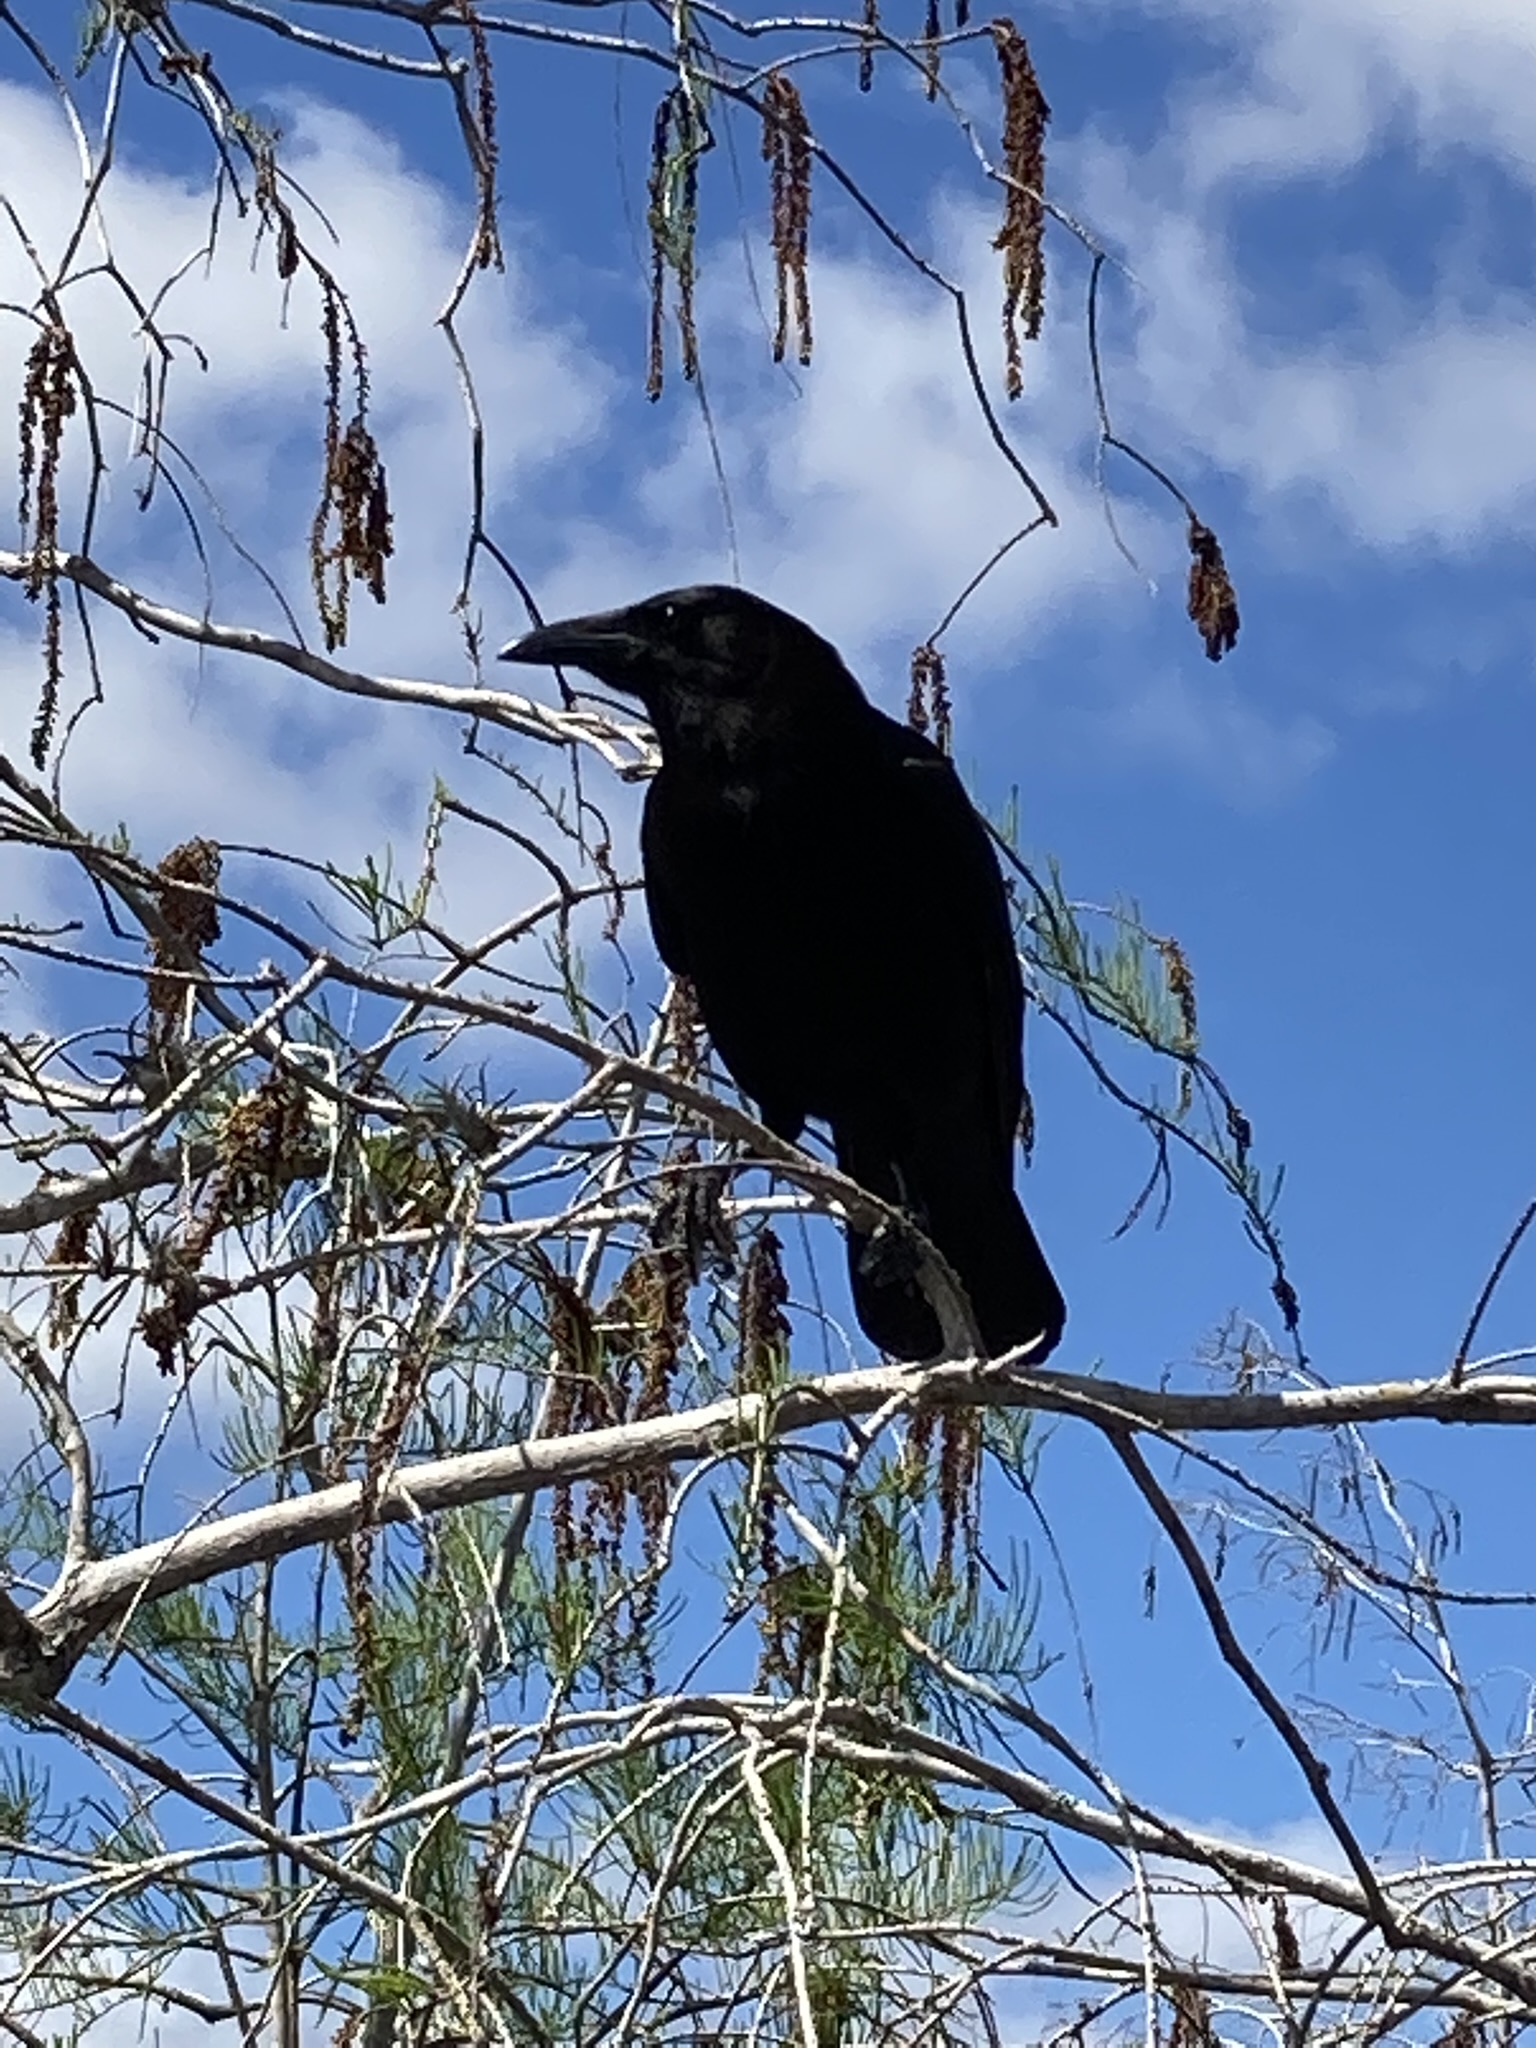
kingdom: Animalia
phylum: Chordata
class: Aves
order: Passeriformes
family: Corvidae
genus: Corvus
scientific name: Corvus brachyrhynchos
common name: American crow
